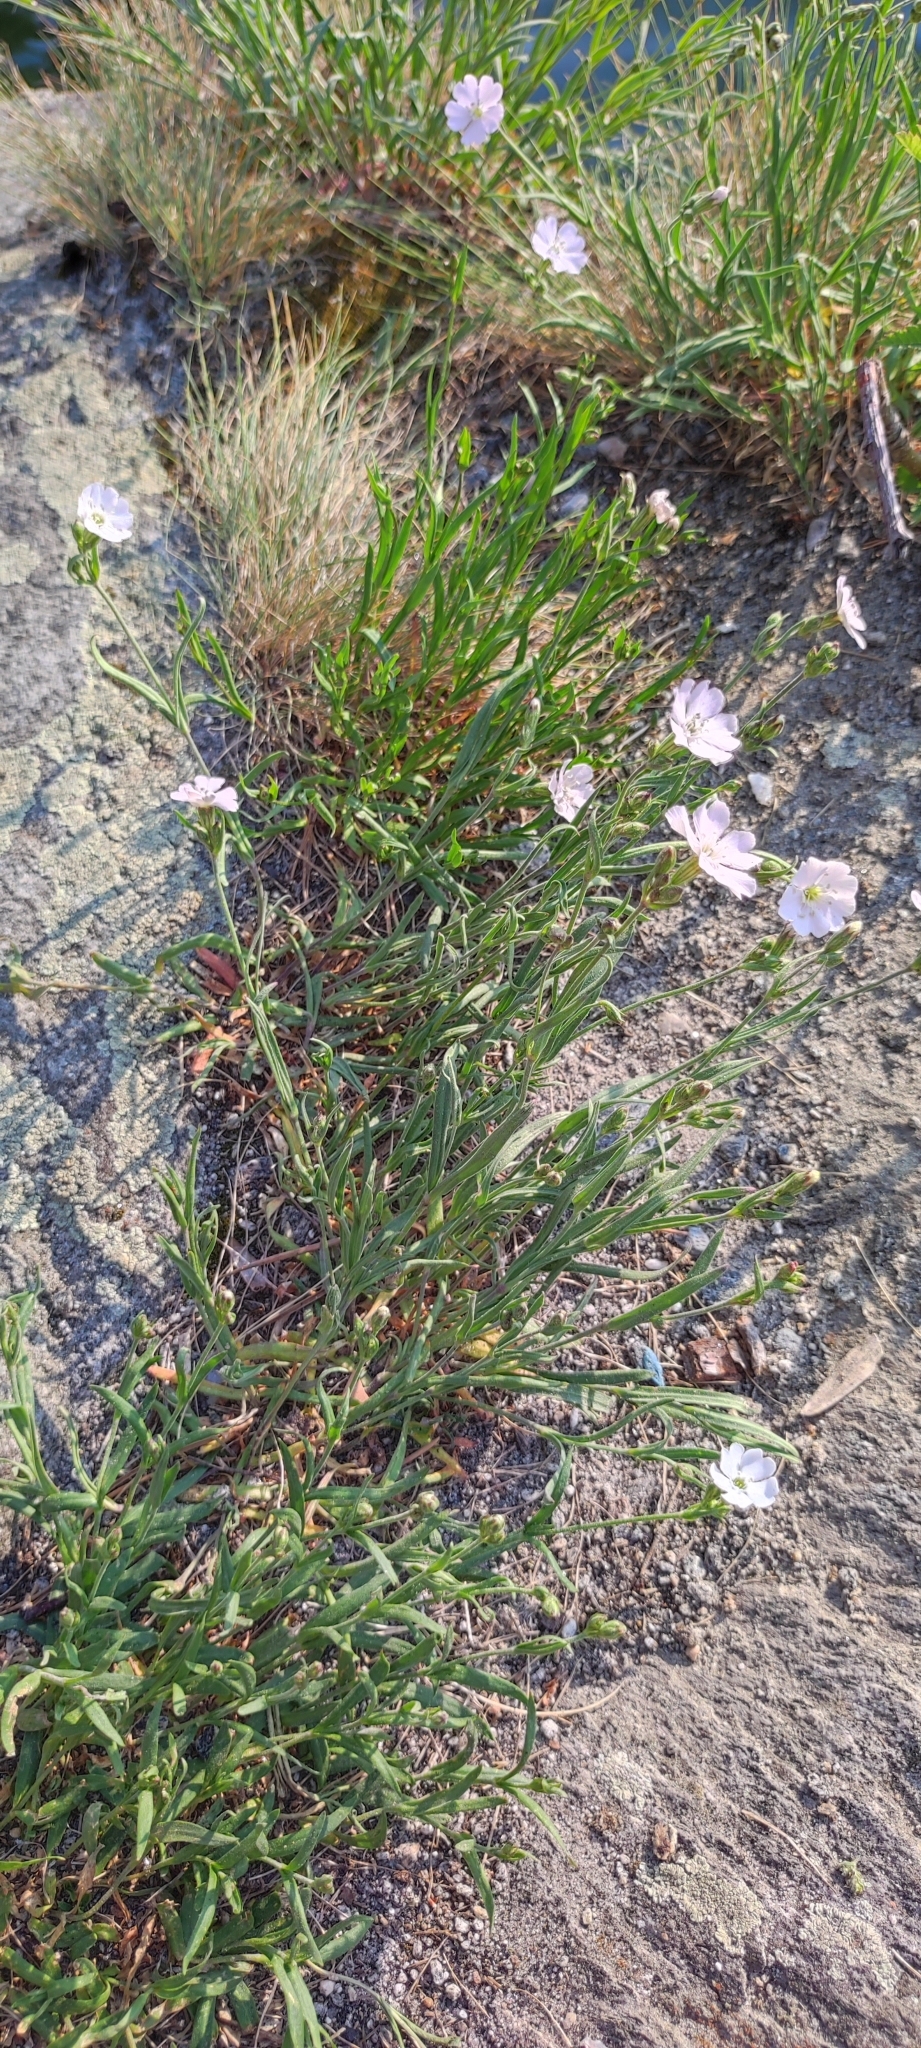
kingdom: Plantae
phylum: Tracheophyta
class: Magnoliopsida
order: Caryophyllales
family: Caryophyllaceae
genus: Silene
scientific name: Silene orientalimongolica
